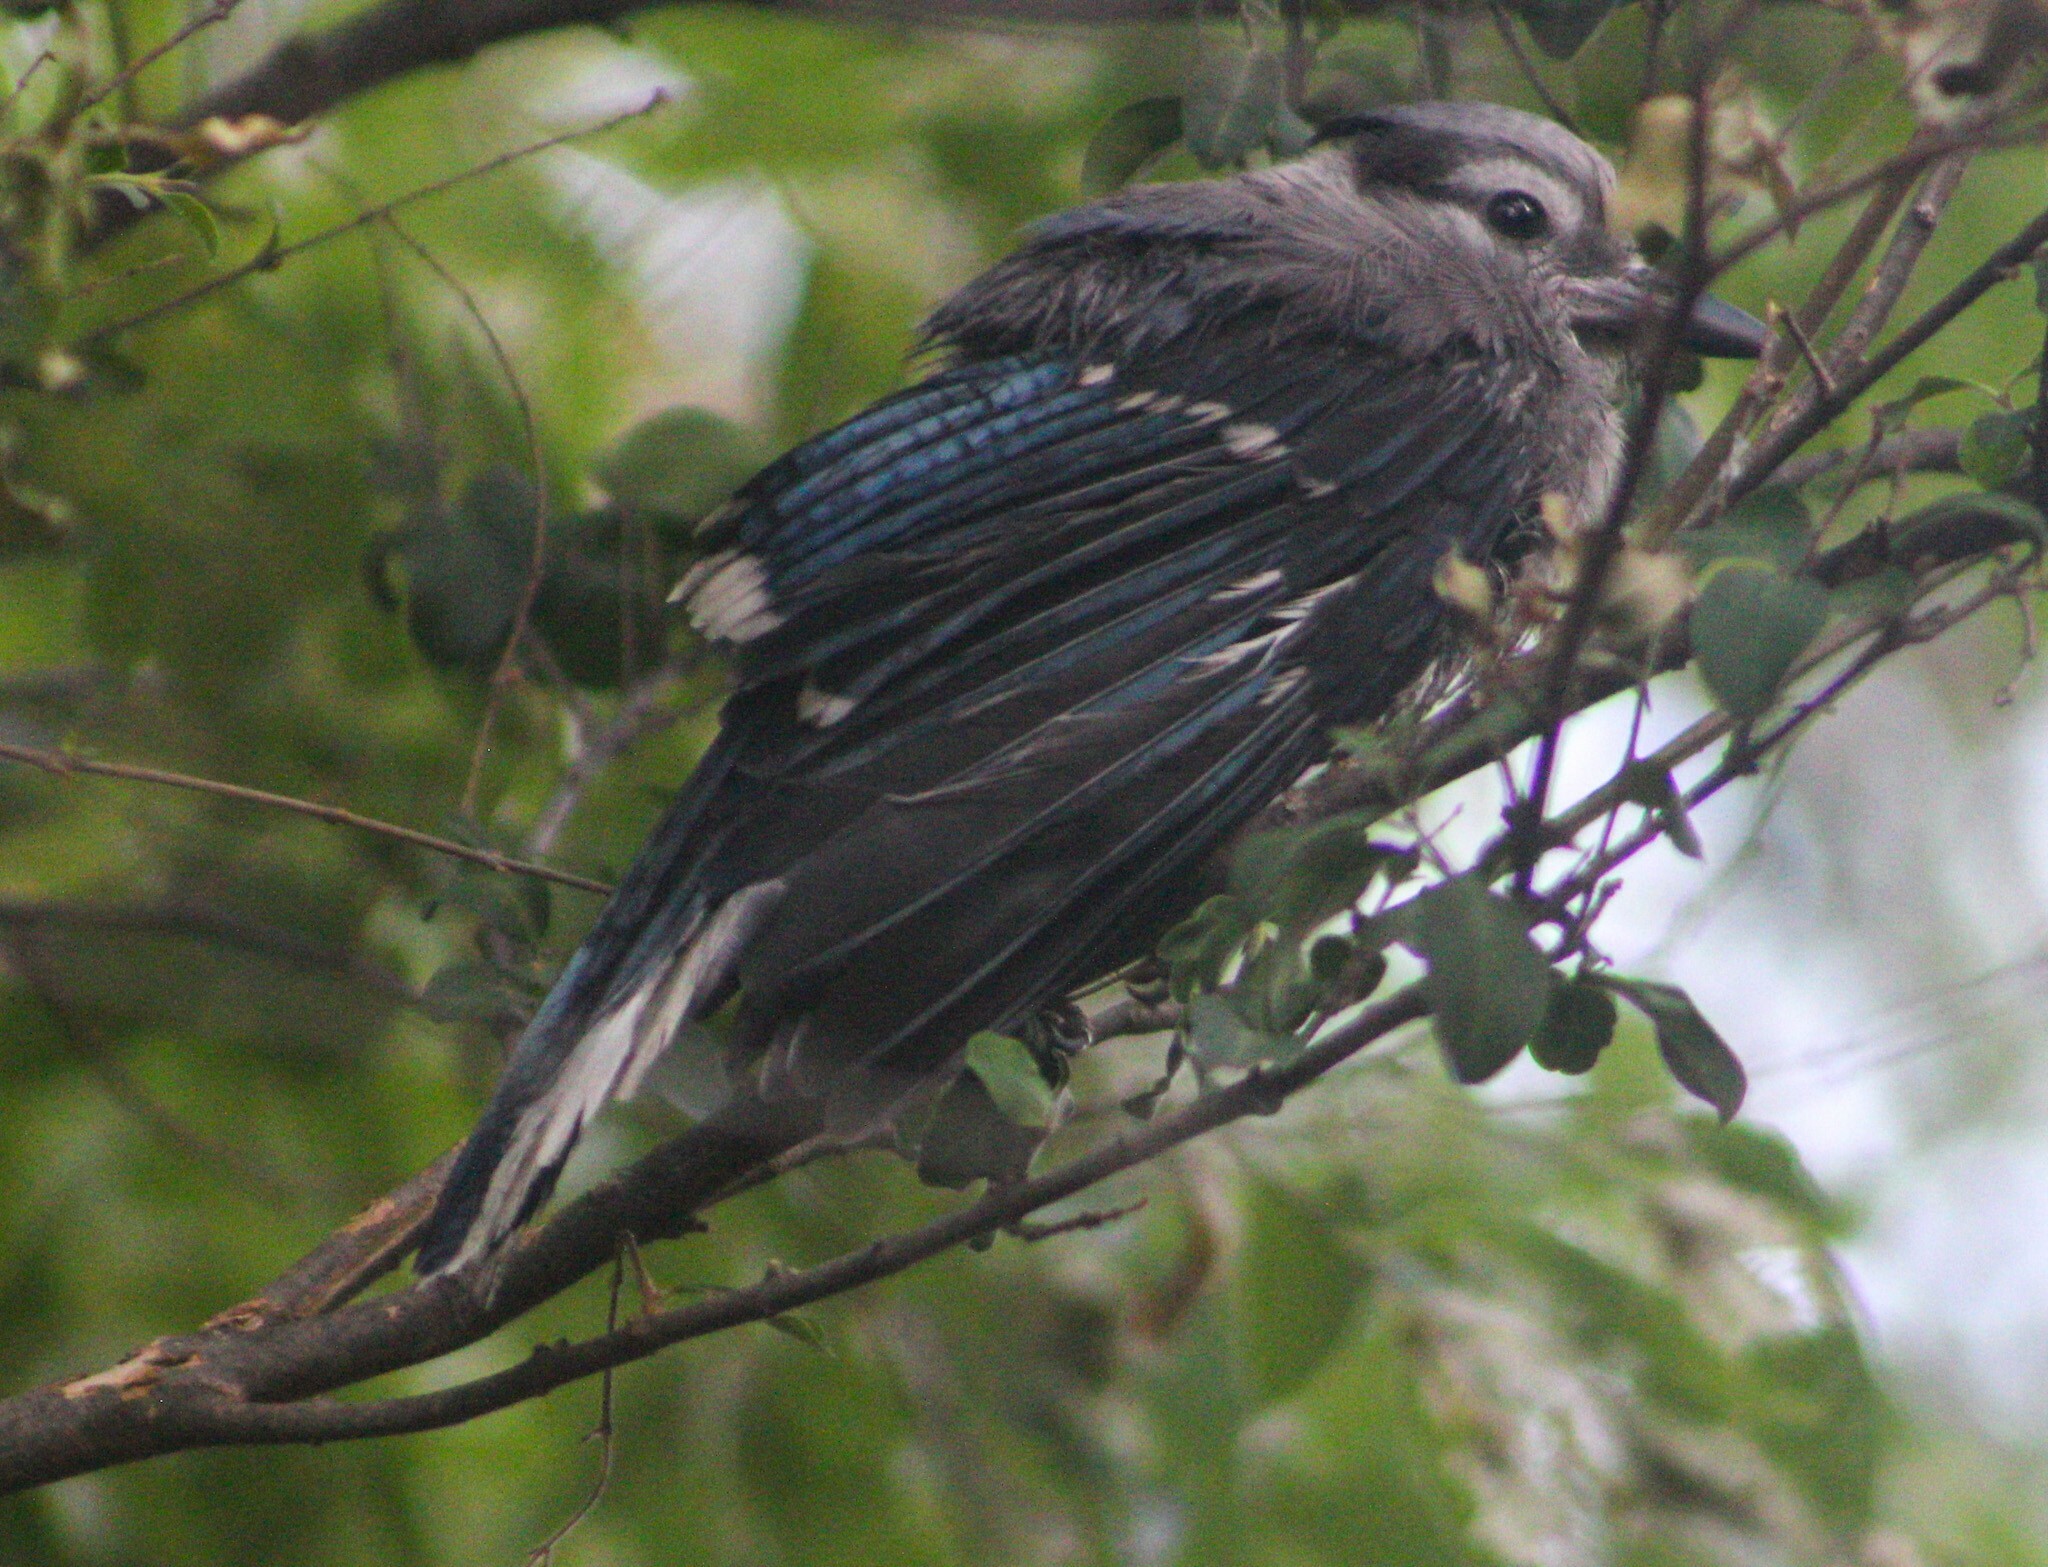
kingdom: Animalia
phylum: Chordata
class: Aves
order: Passeriformes
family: Corvidae
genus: Cyanocitta
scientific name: Cyanocitta cristata
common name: Blue jay
